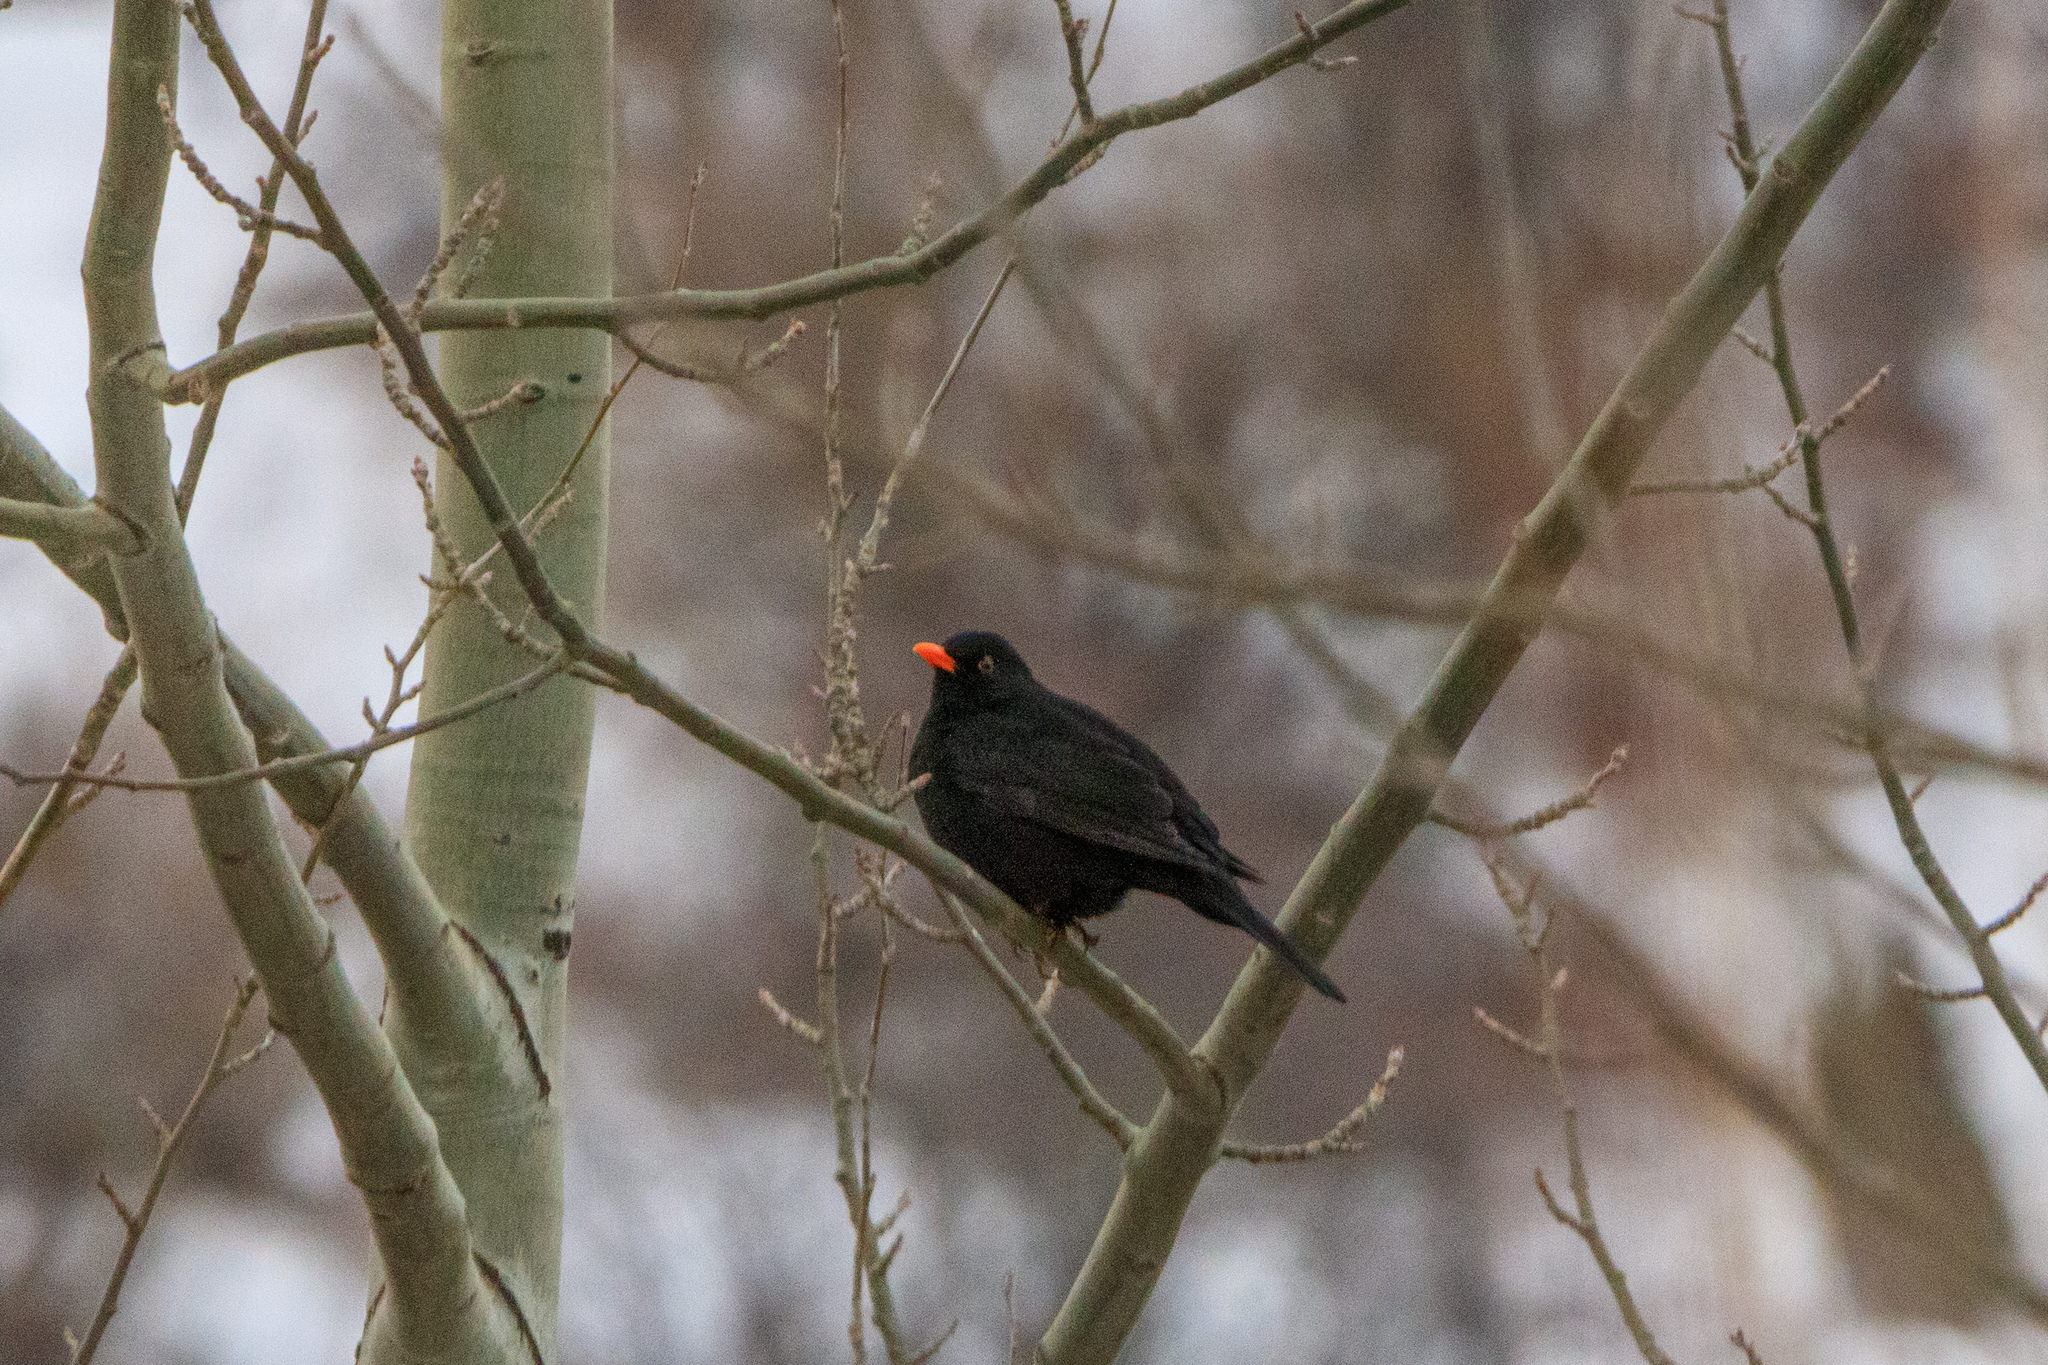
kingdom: Animalia
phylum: Chordata
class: Aves
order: Passeriformes
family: Turdidae
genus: Turdus
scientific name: Turdus merula
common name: Common blackbird
